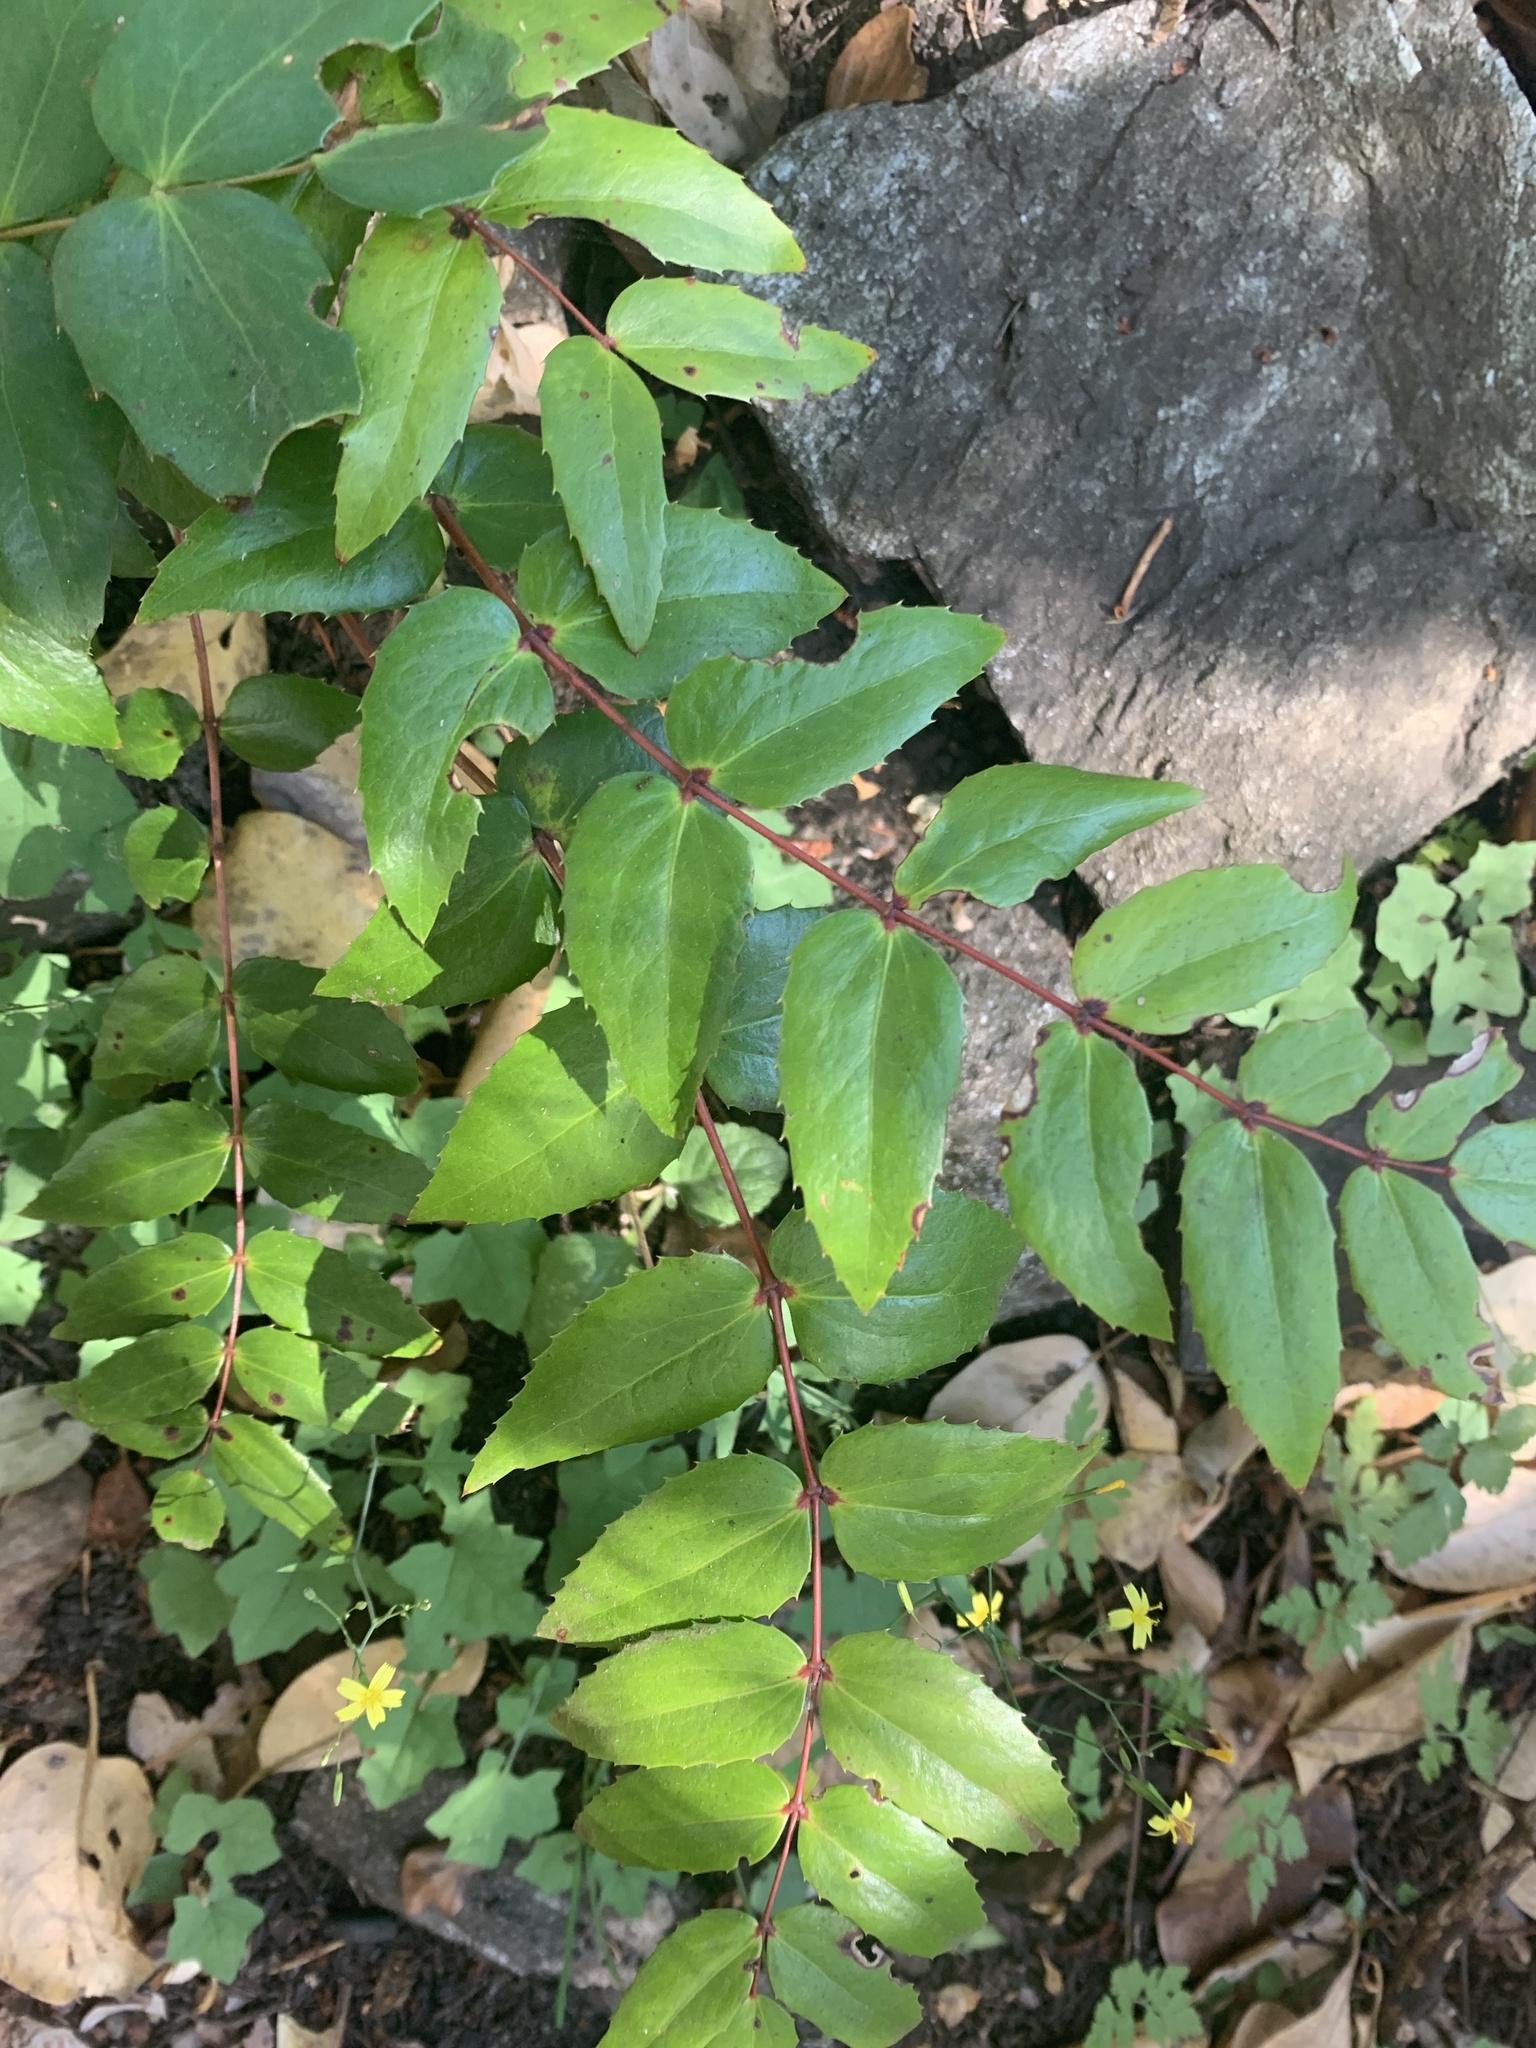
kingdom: Plantae
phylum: Tracheophyta
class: Magnoliopsida
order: Ranunculales
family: Berberidaceae
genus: Mahonia
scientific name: Mahonia nervosa
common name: Cascade oregon-grape
